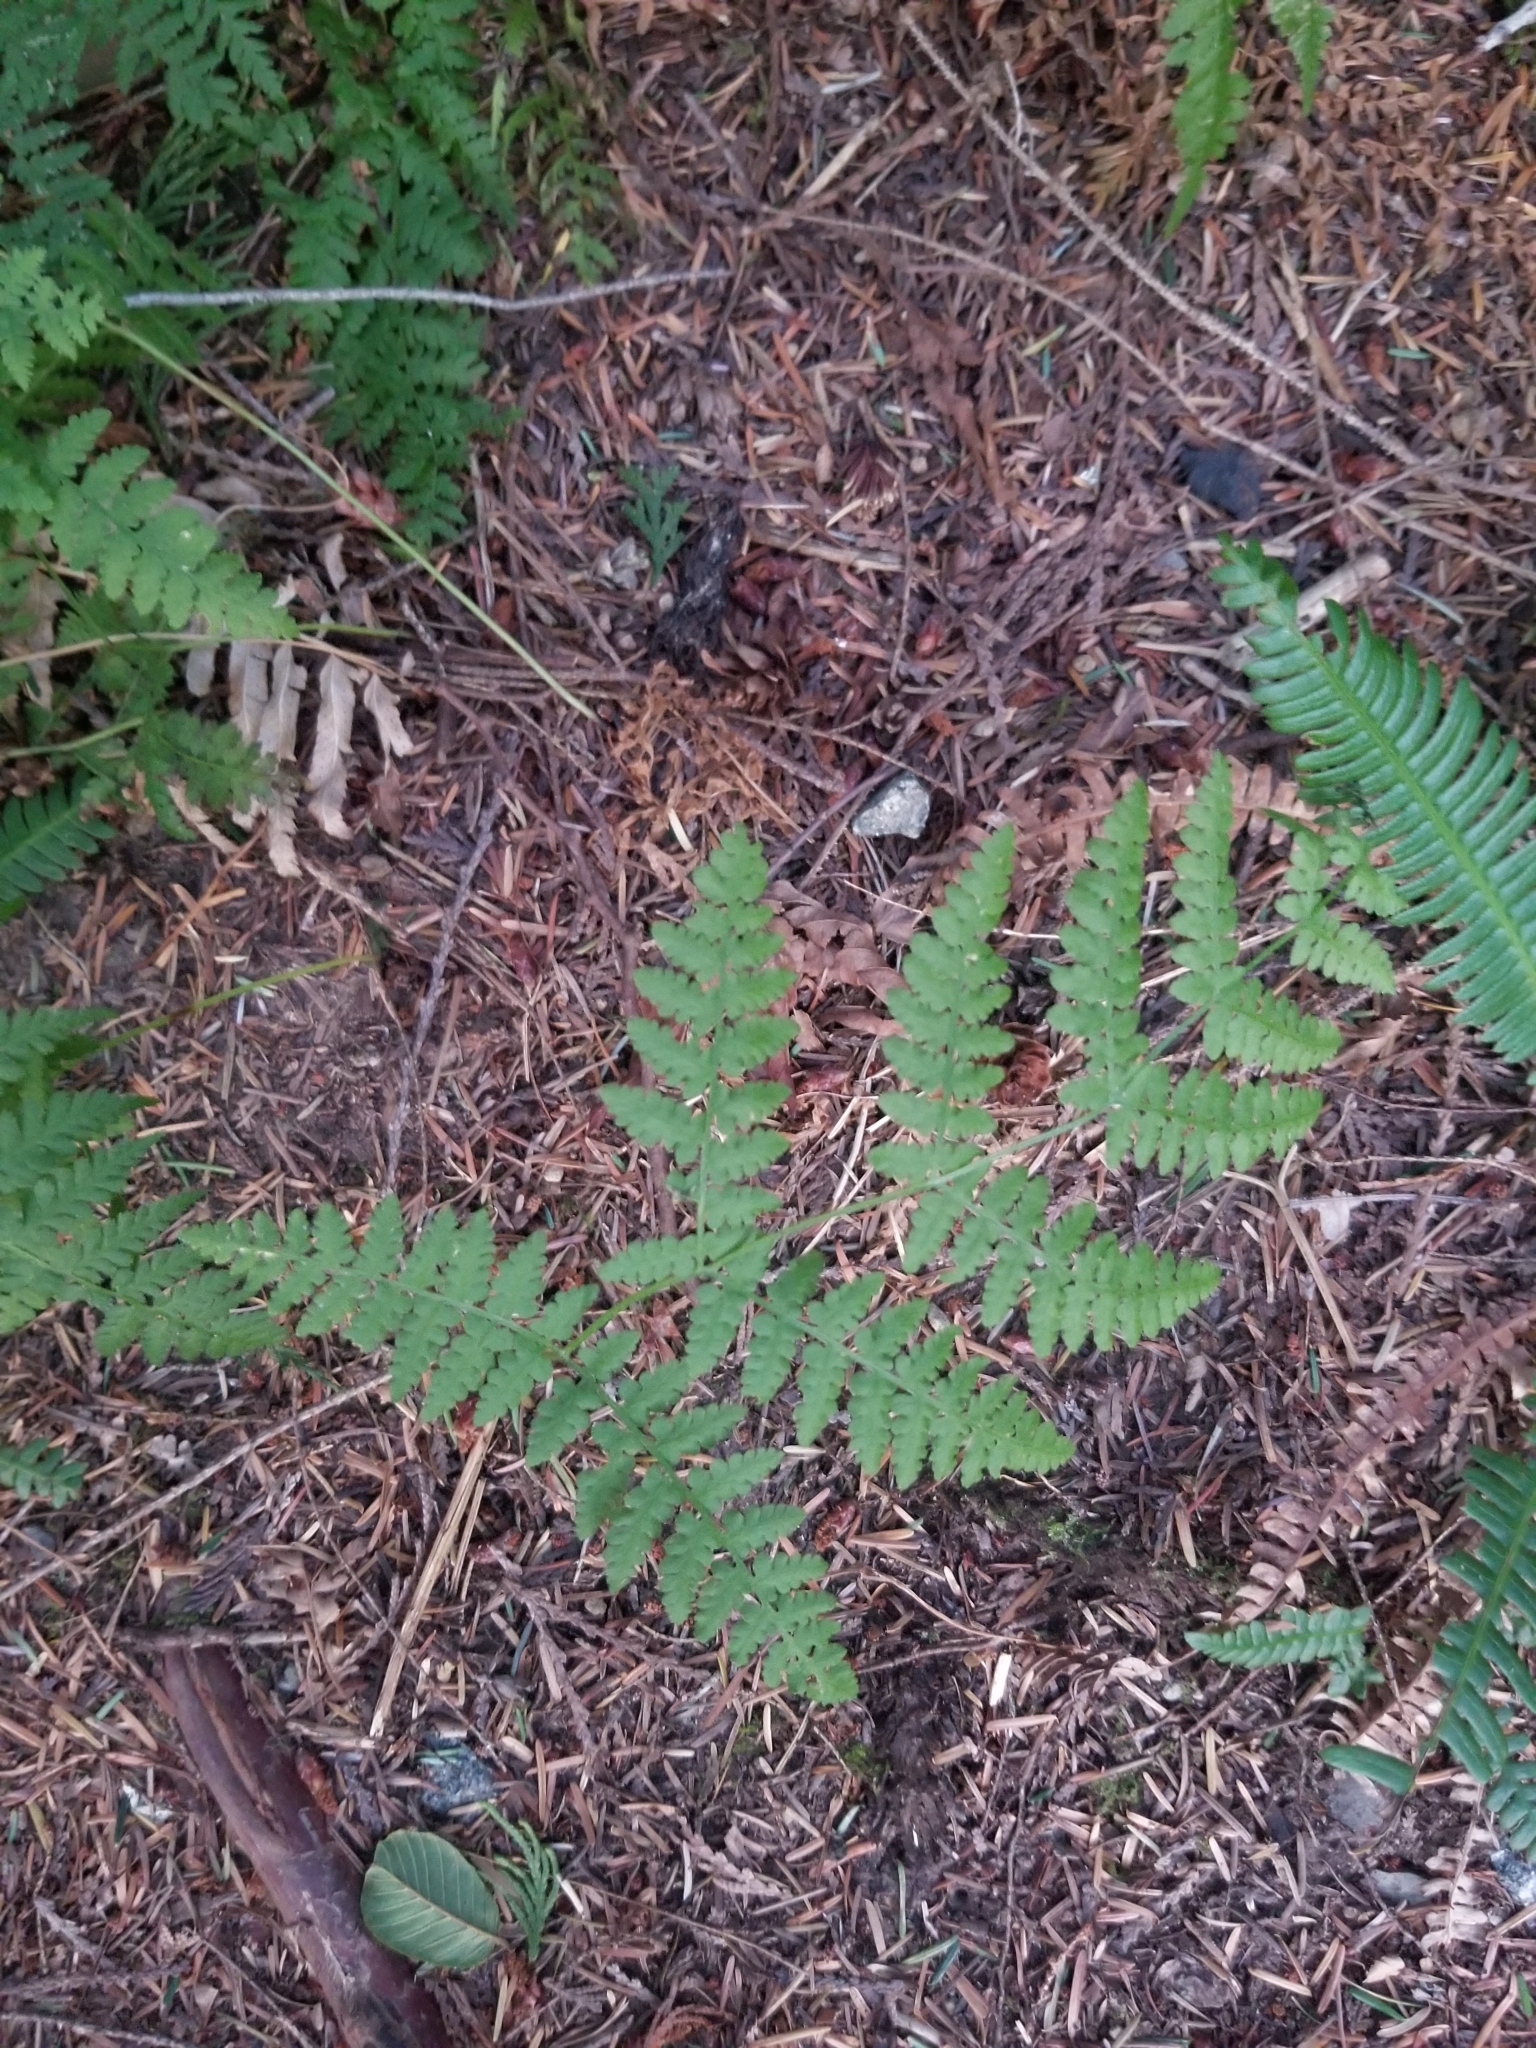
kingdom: Plantae
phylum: Tracheophyta
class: Polypodiopsida
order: Polypodiales
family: Dennstaedtiaceae
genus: Pteridium
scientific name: Pteridium aquilinum
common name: Bracken
